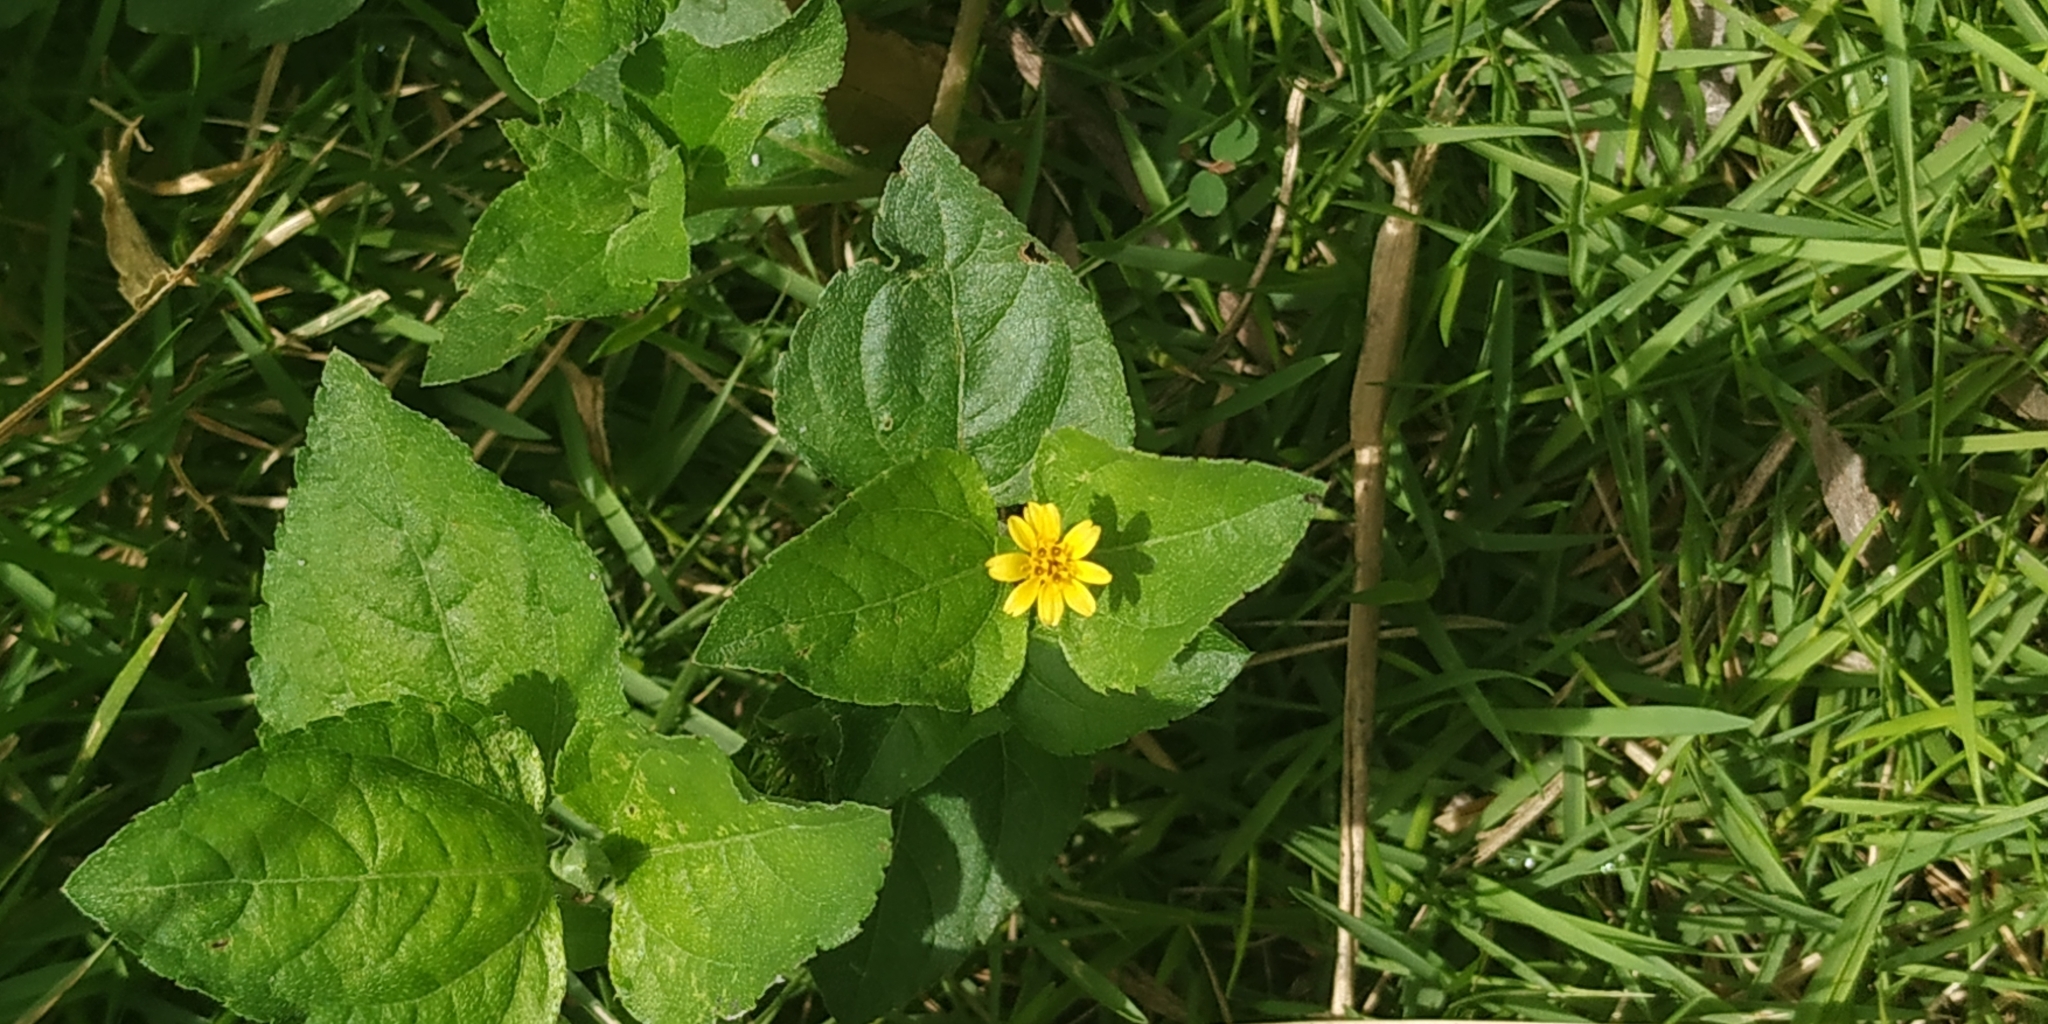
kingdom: Plantae
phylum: Tracheophyta
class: Magnoliopsida
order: Asterales
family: Asteraceae
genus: Calyptocarpus
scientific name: Calyptocarpus vialis
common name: Straggler daisy
